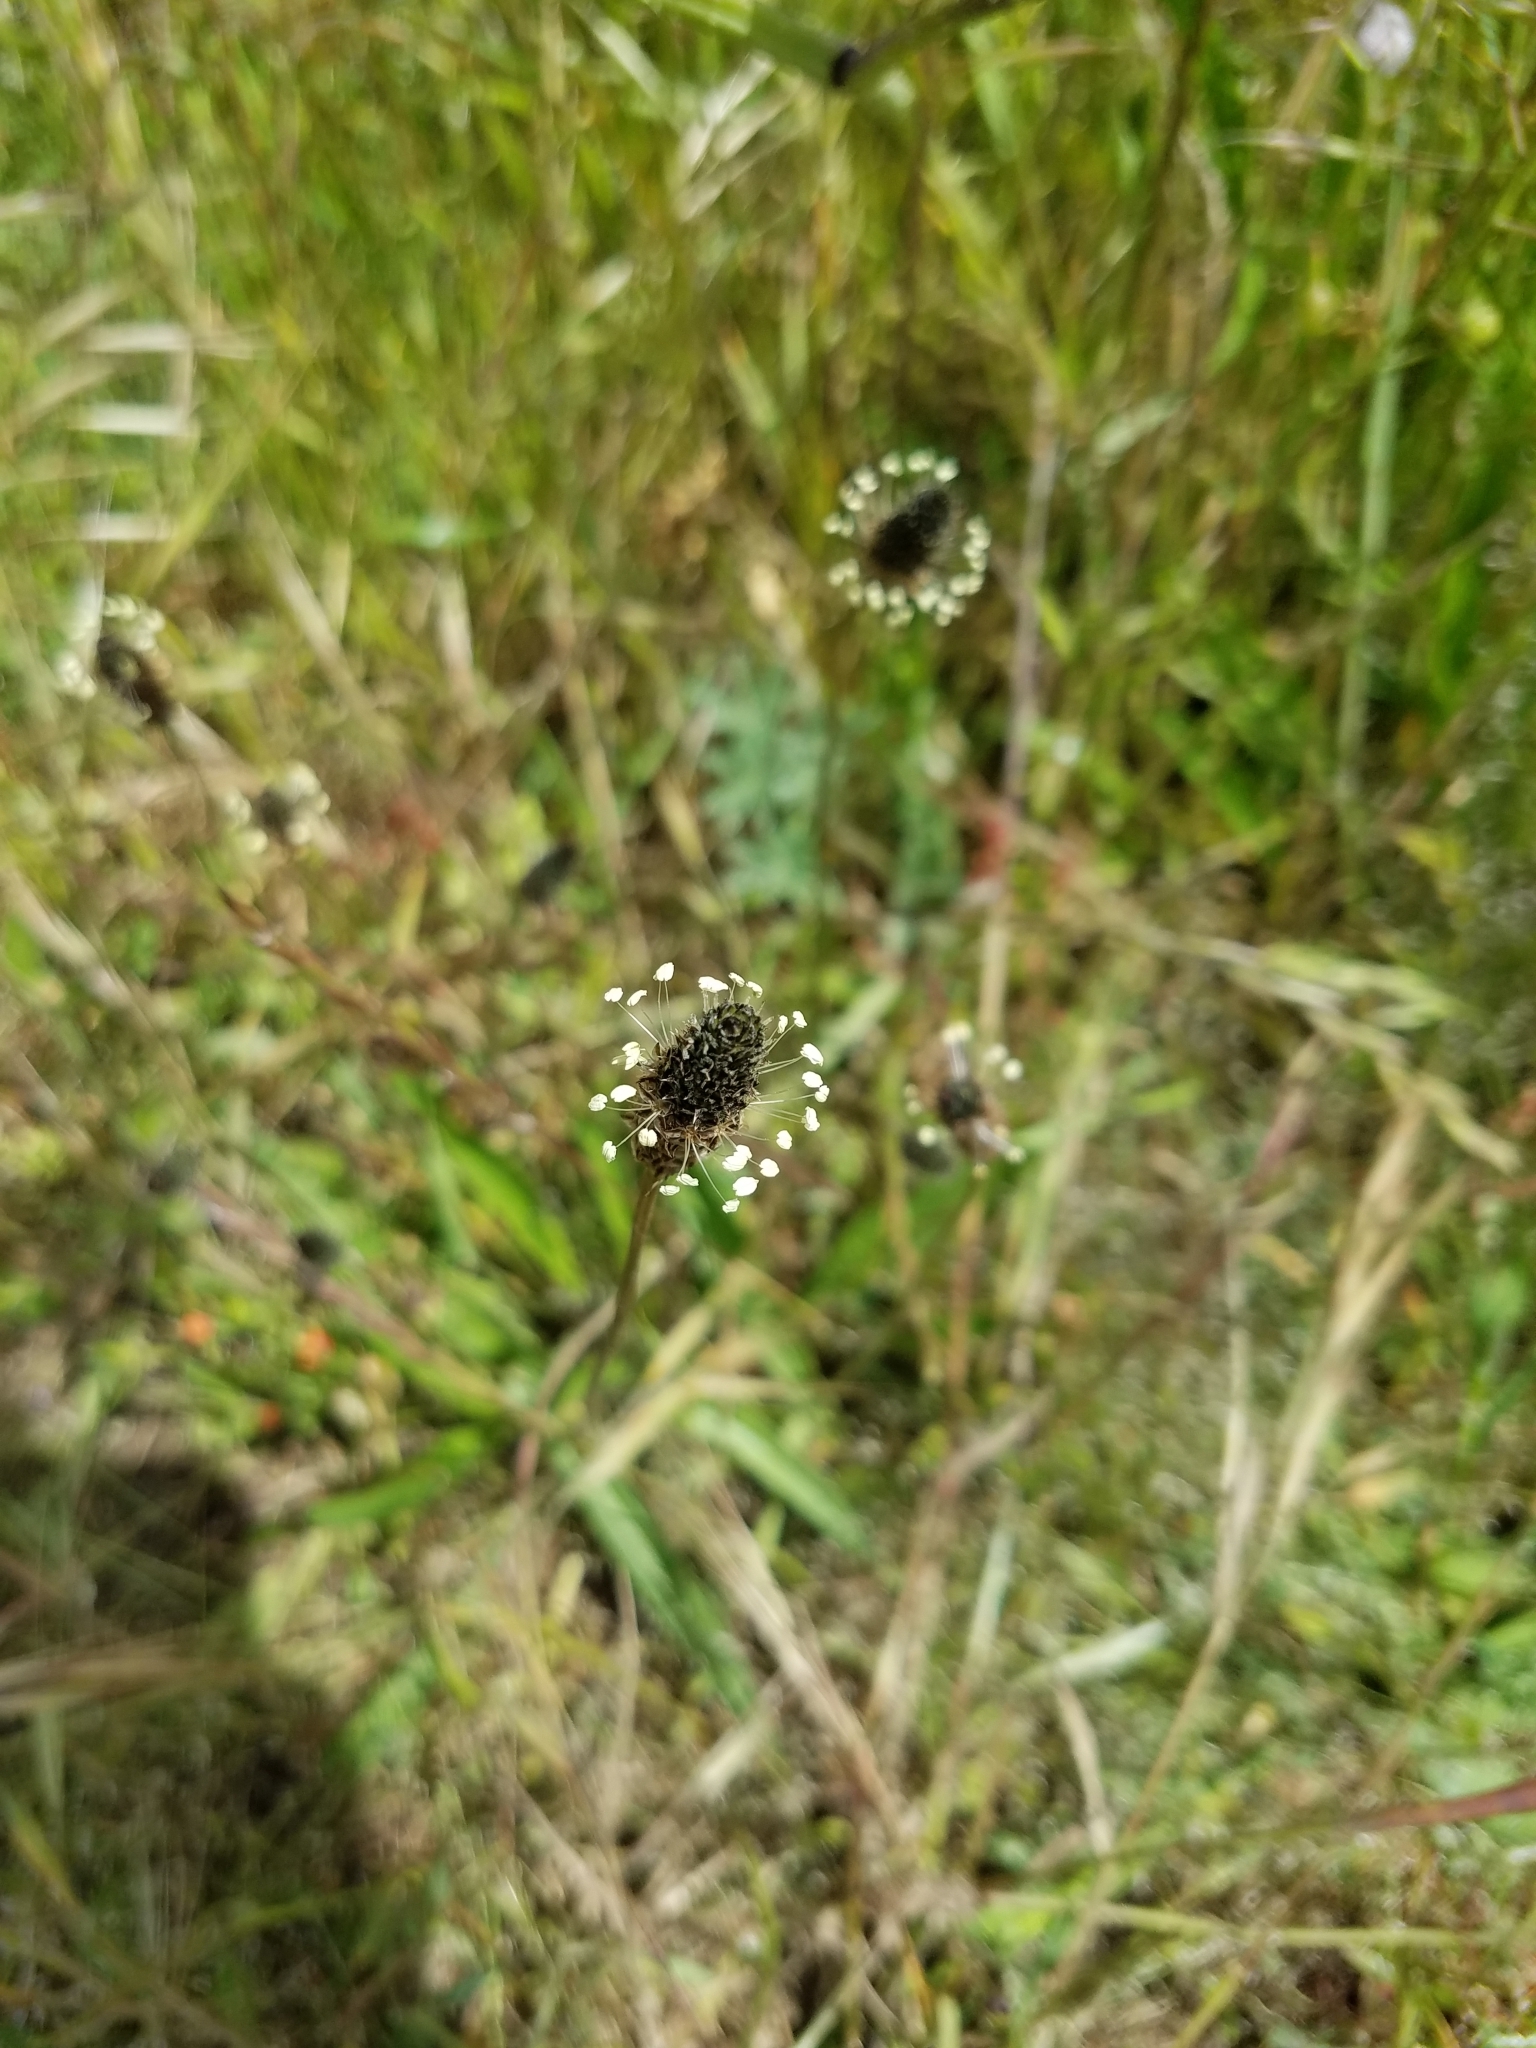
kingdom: Plantae
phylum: Tracheophyta
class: Magnoliopsida
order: Lamiales
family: Plantaginaceae
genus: Plantago
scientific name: Plantago lanceolata
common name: Ribwort plantain
